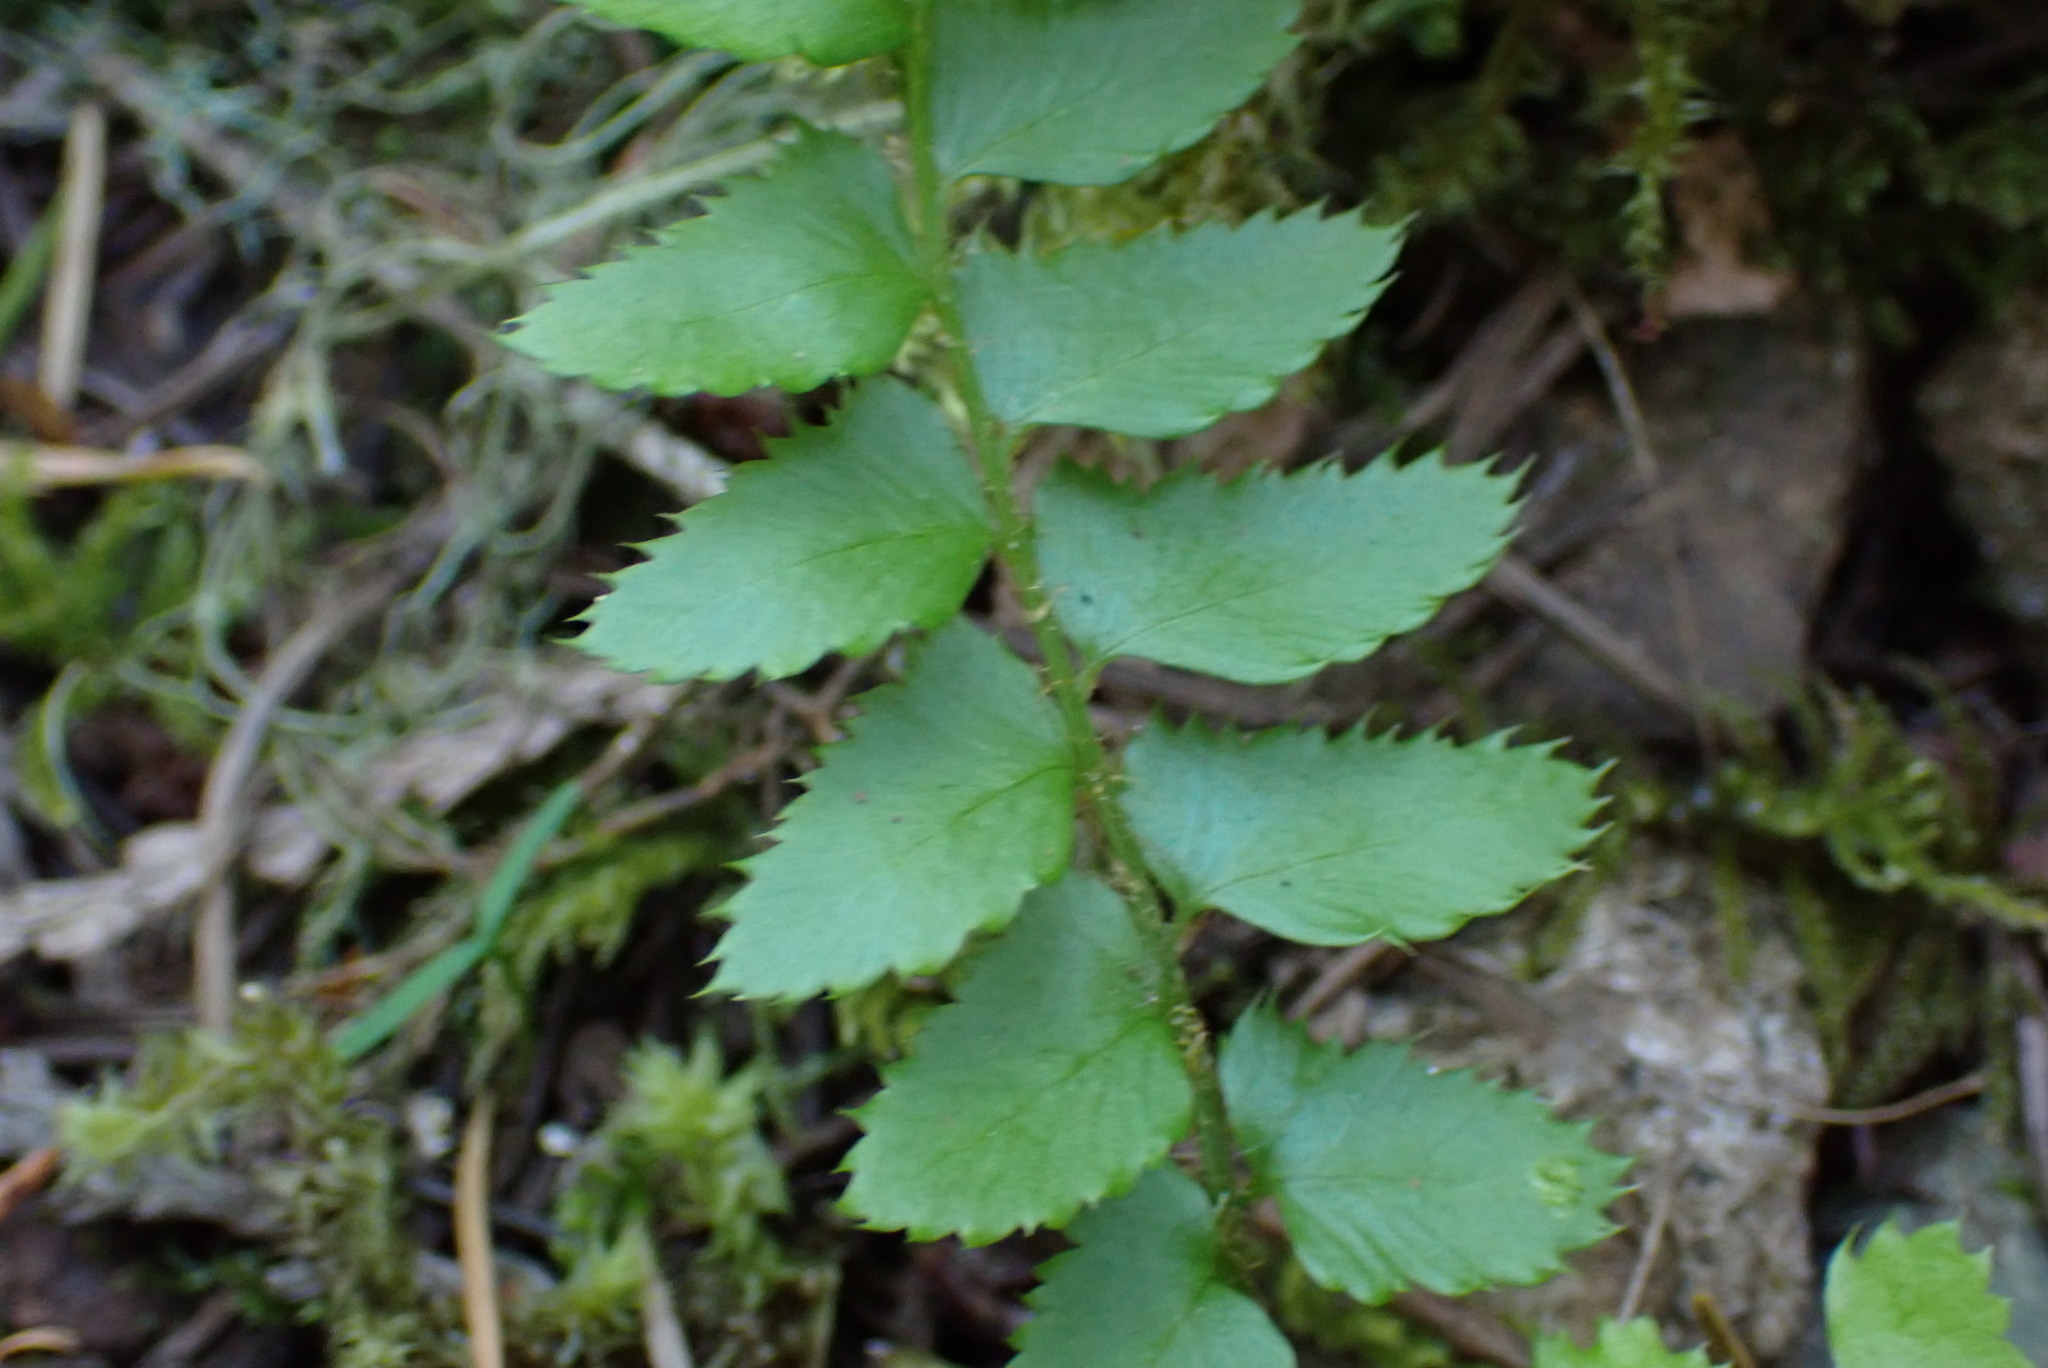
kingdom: Plantae
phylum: Tracheophyta
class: Polypodiopsida
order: Polypodiales
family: Dryopteridaceae
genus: Polystichum
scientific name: Polystichum munitum
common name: Western sword-fern
